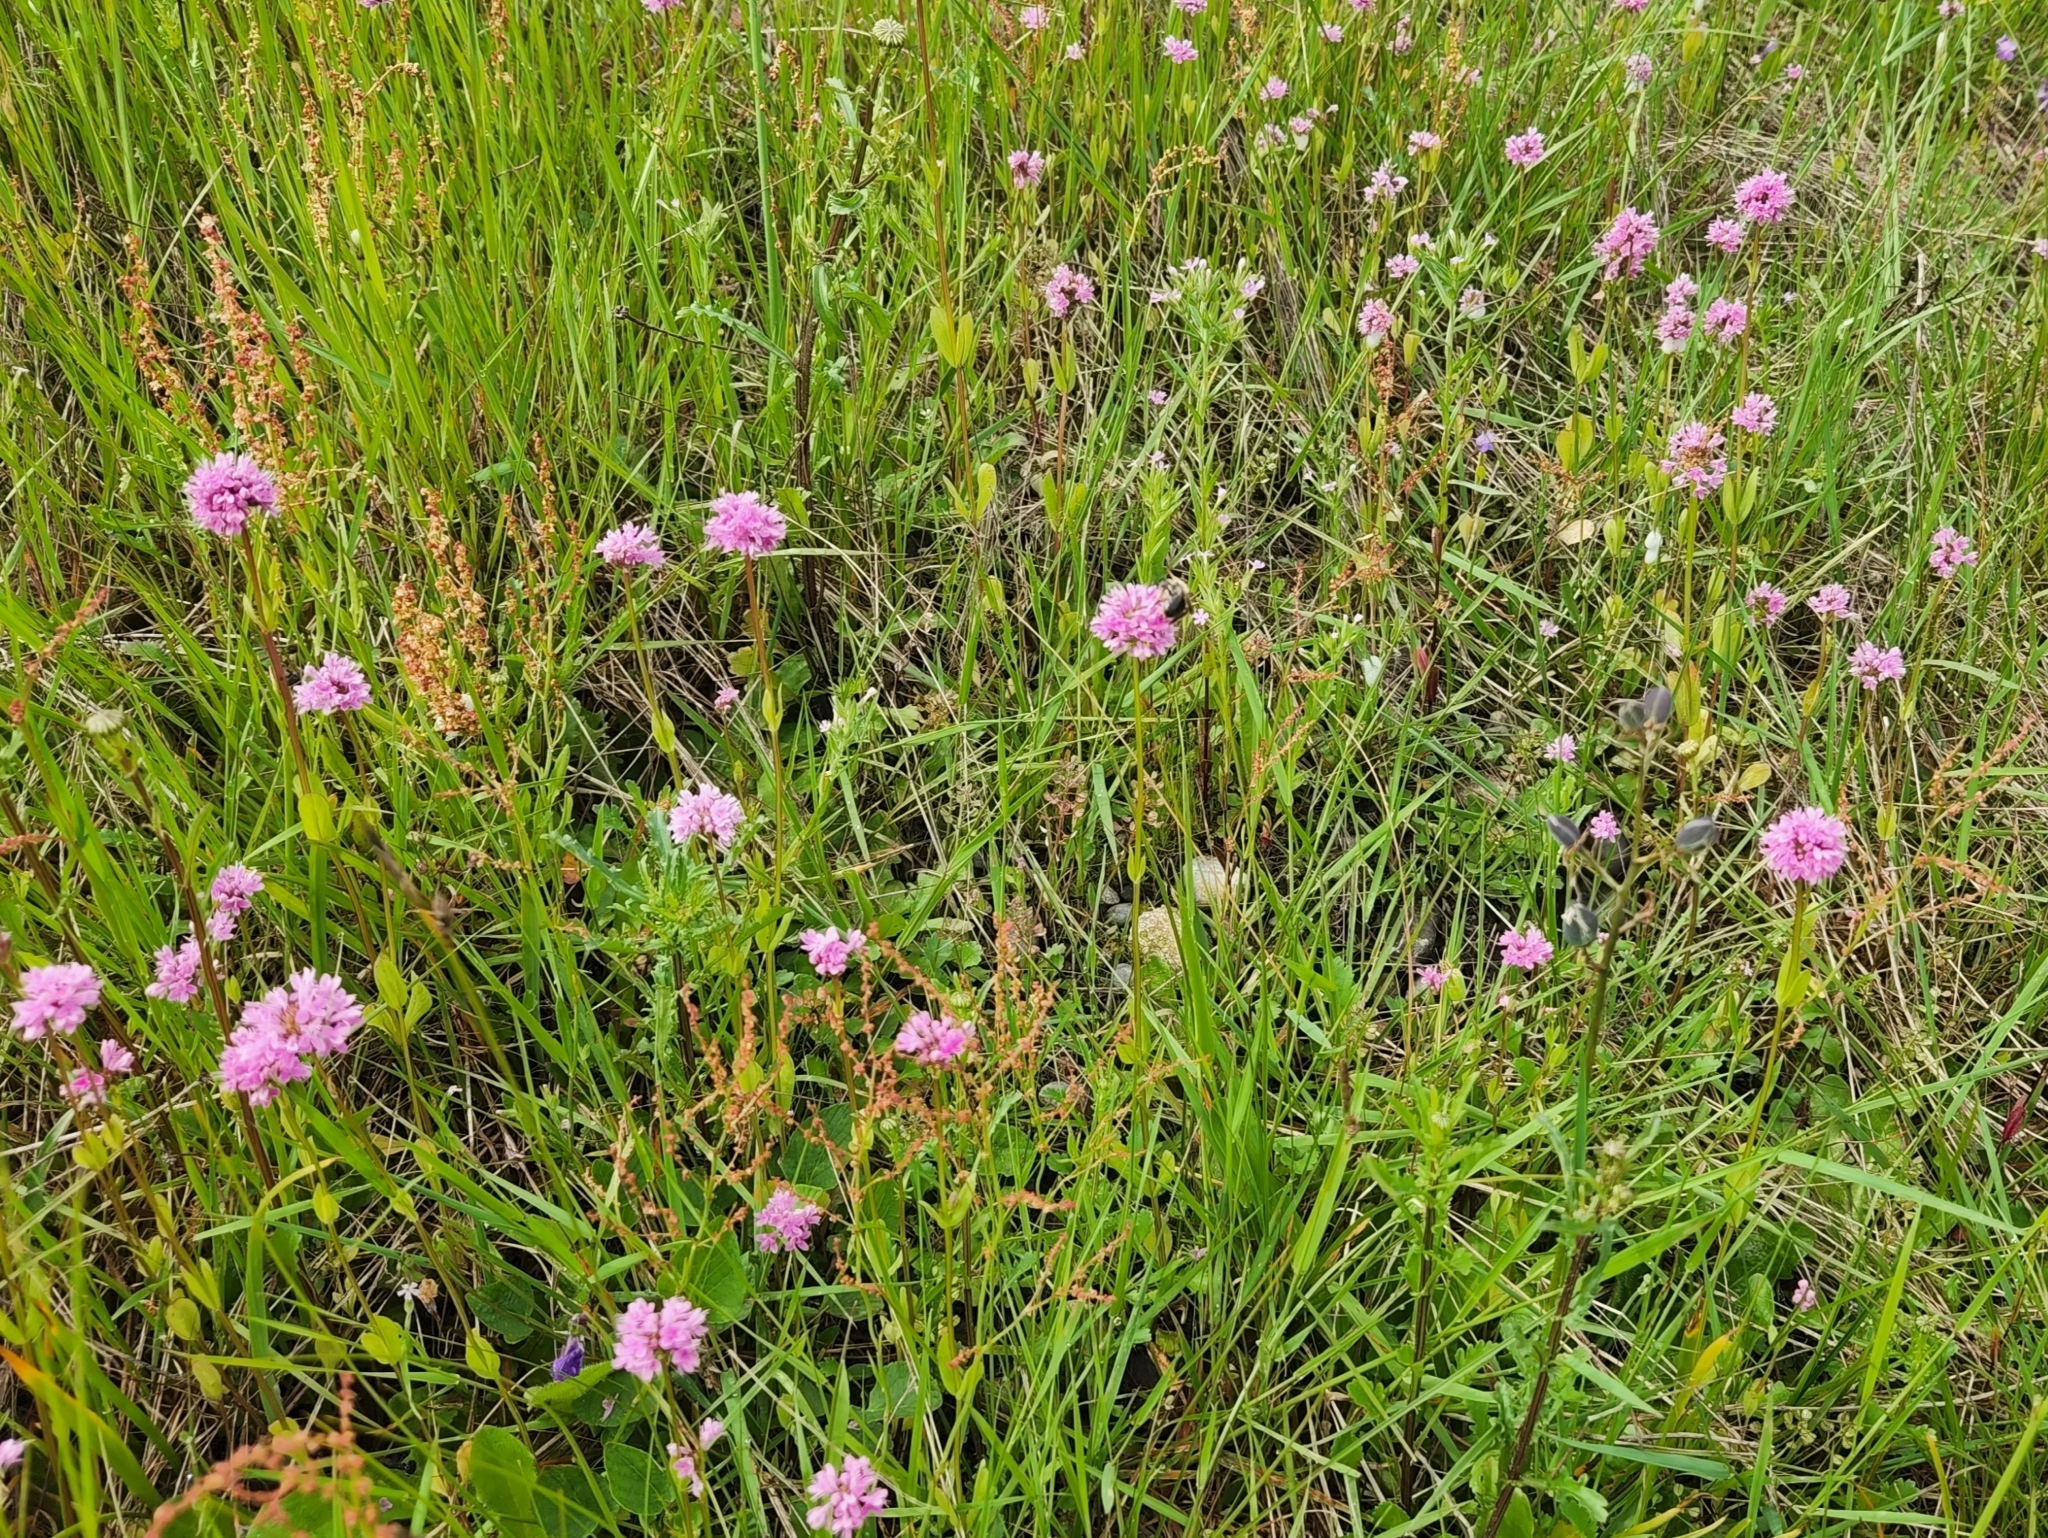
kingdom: Plantae
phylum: Tracheophyta
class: Magnoliopsida
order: Dipsacales
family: Caprifoliaceae
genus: Plectritis
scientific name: Plectritis congesta
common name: Pink plectritis
